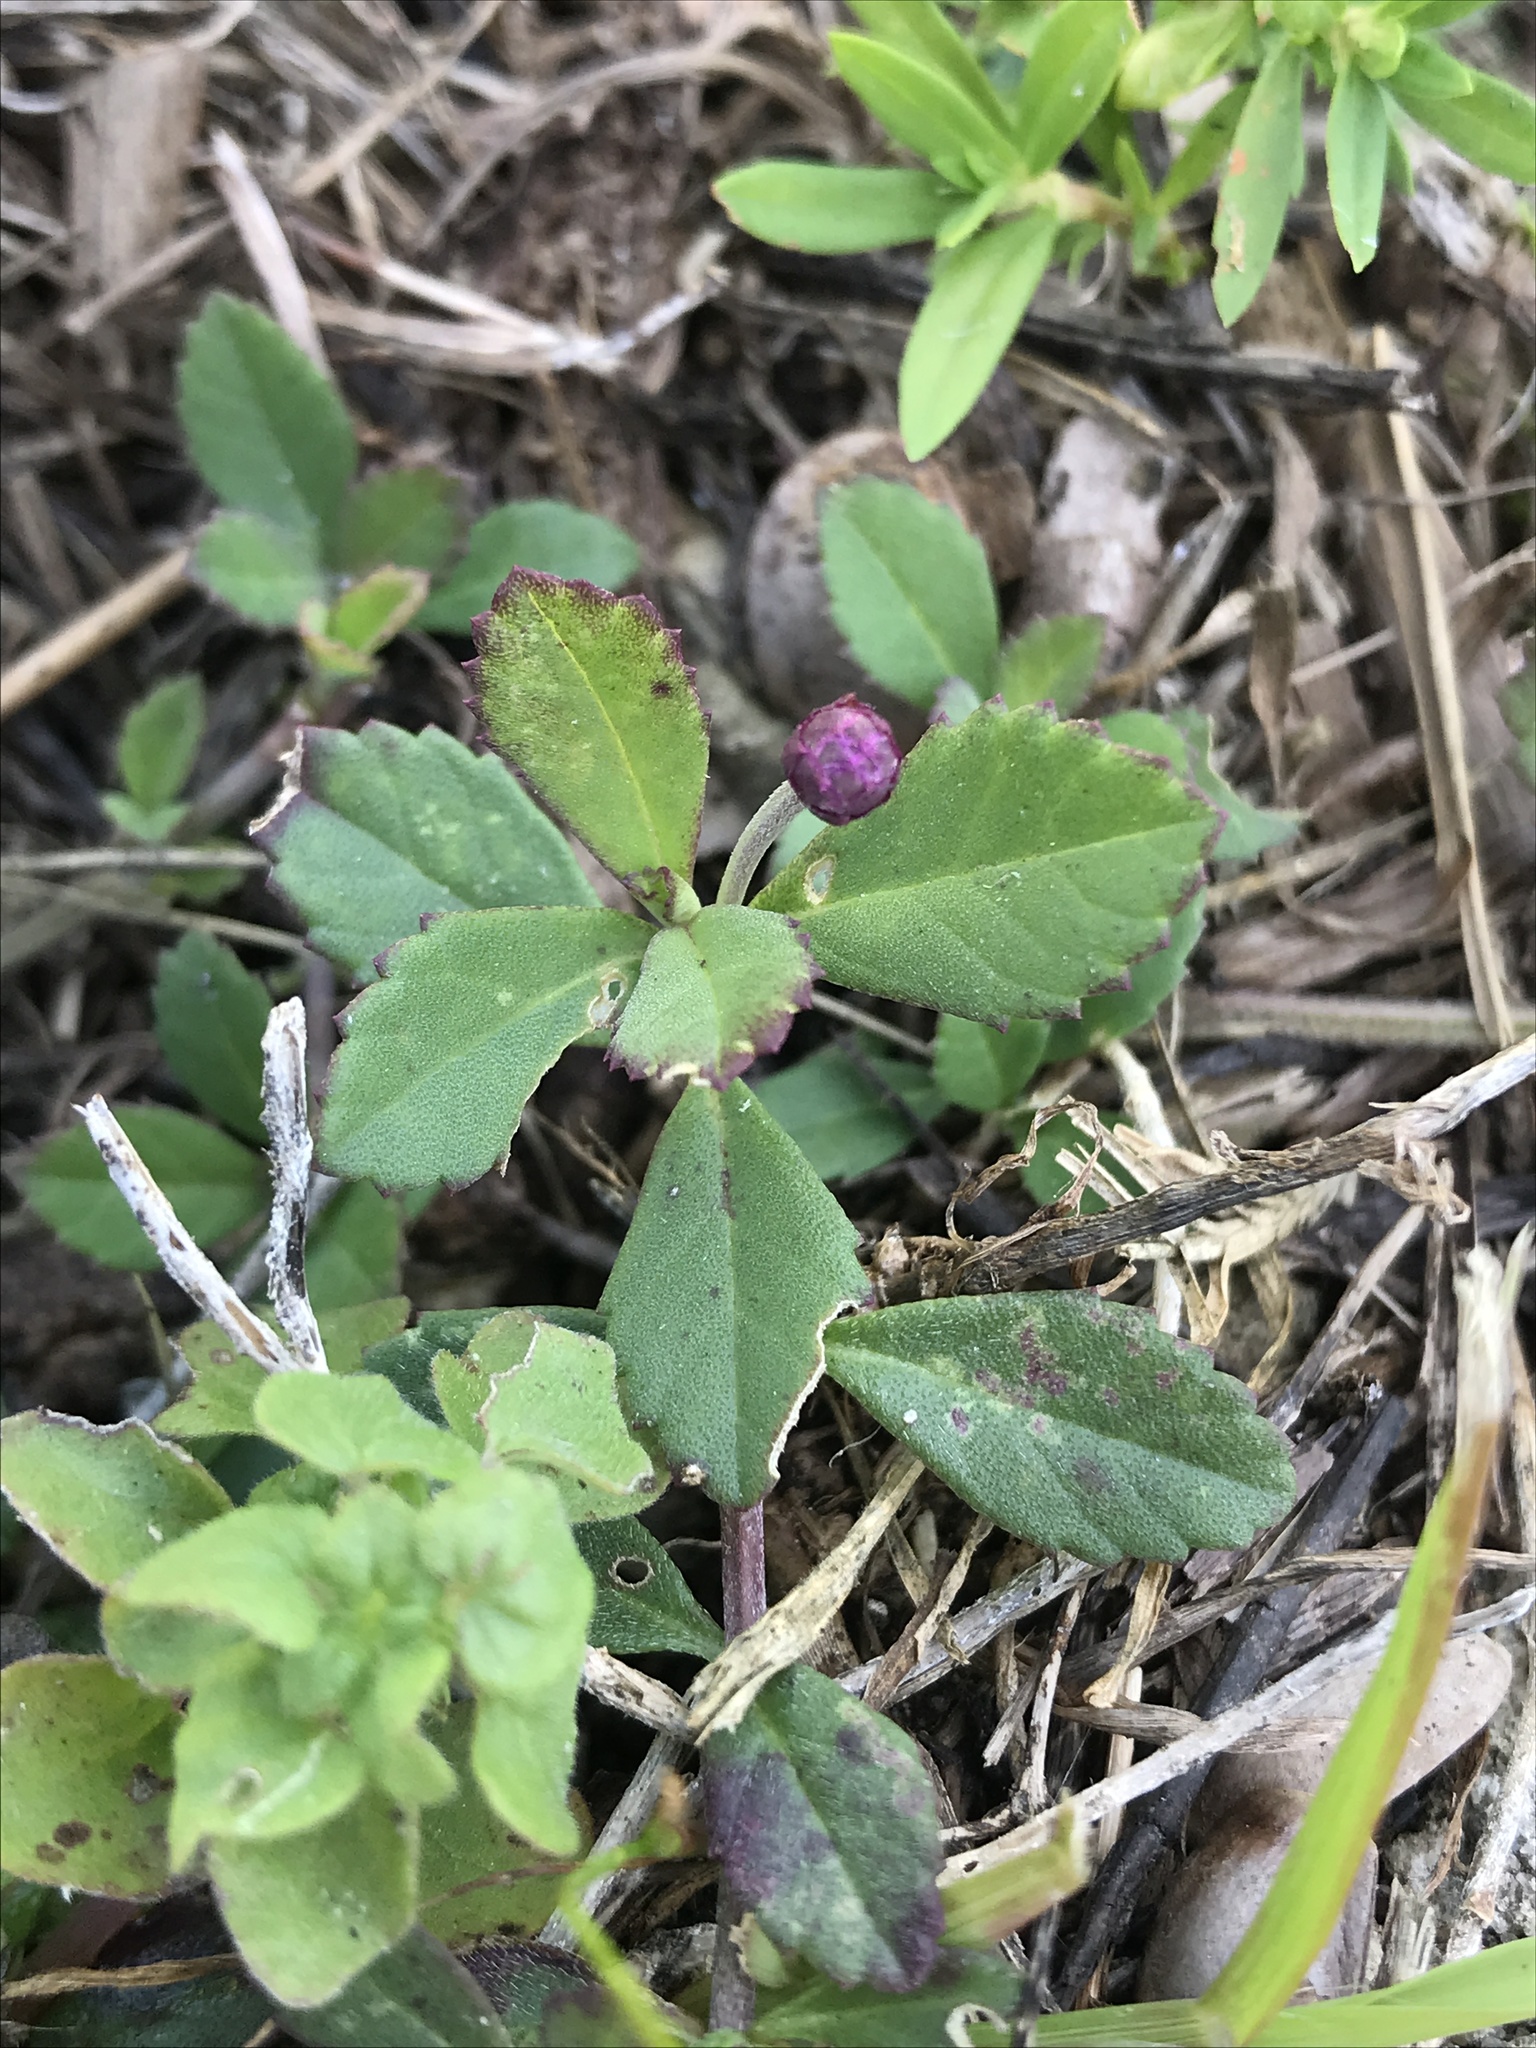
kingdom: Plantae
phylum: Tracheophyta
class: Magnoliopsida
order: Lamiales
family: Verbenaceae
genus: Phyla
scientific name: Phyla nodiflora
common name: Frogfruit
